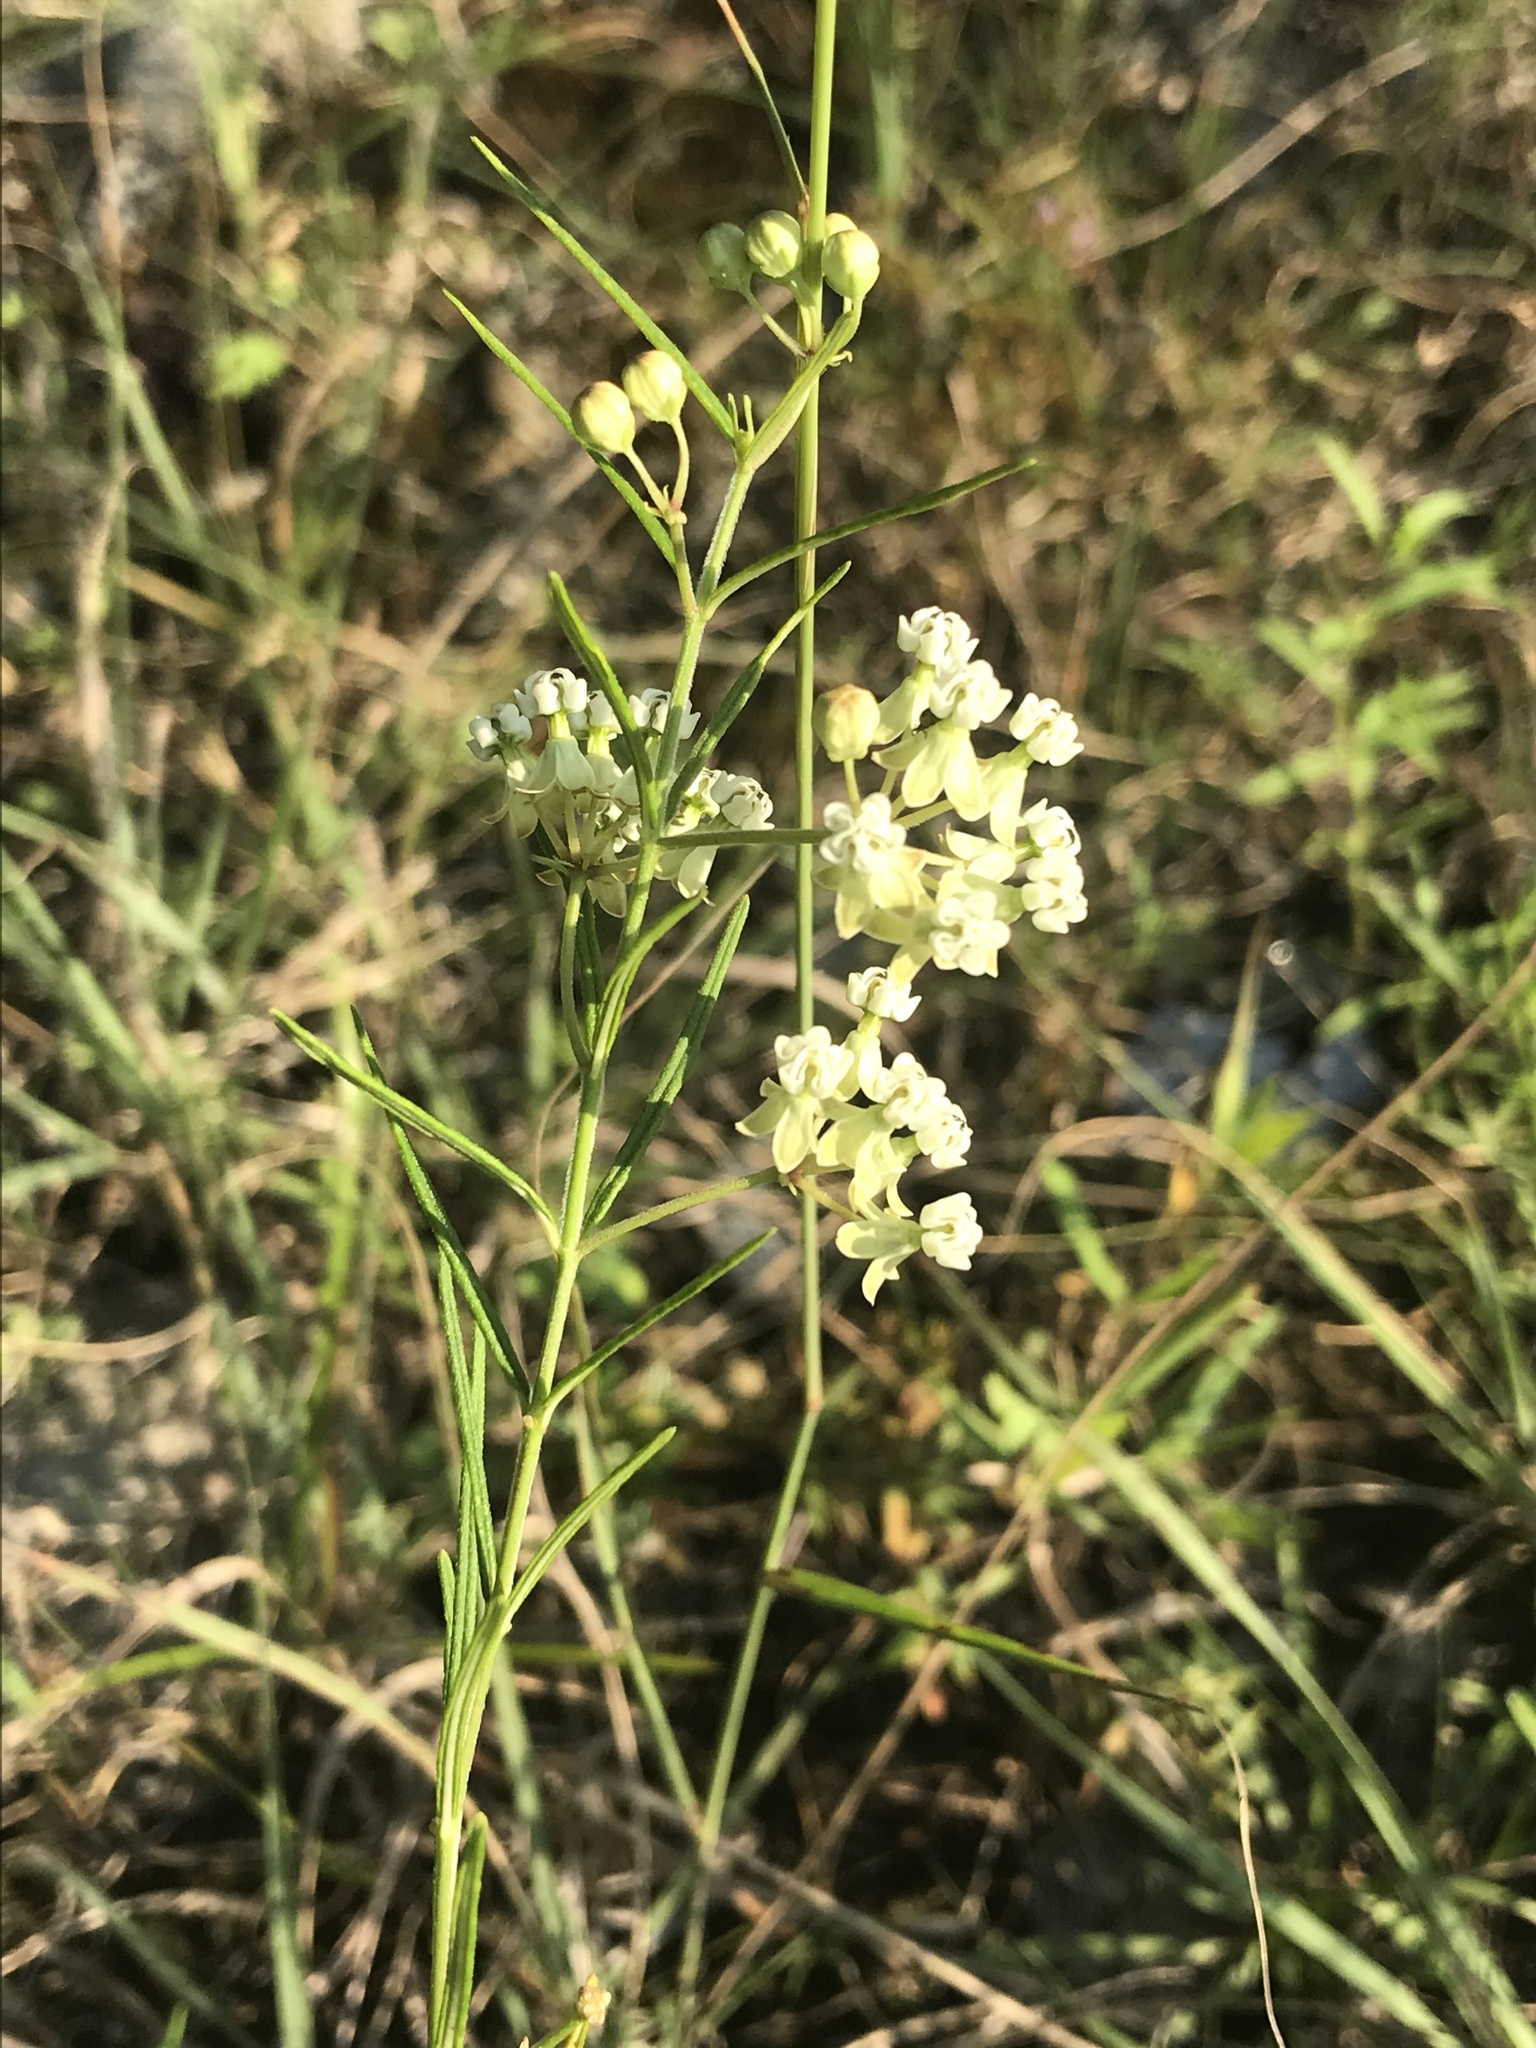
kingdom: Plantae
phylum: Tracheophyta
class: Magnoliopsida
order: Gentianales
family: Apocynaceae
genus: Asclepias
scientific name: Asclepias verticillata
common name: Eastern whorled milkweed
